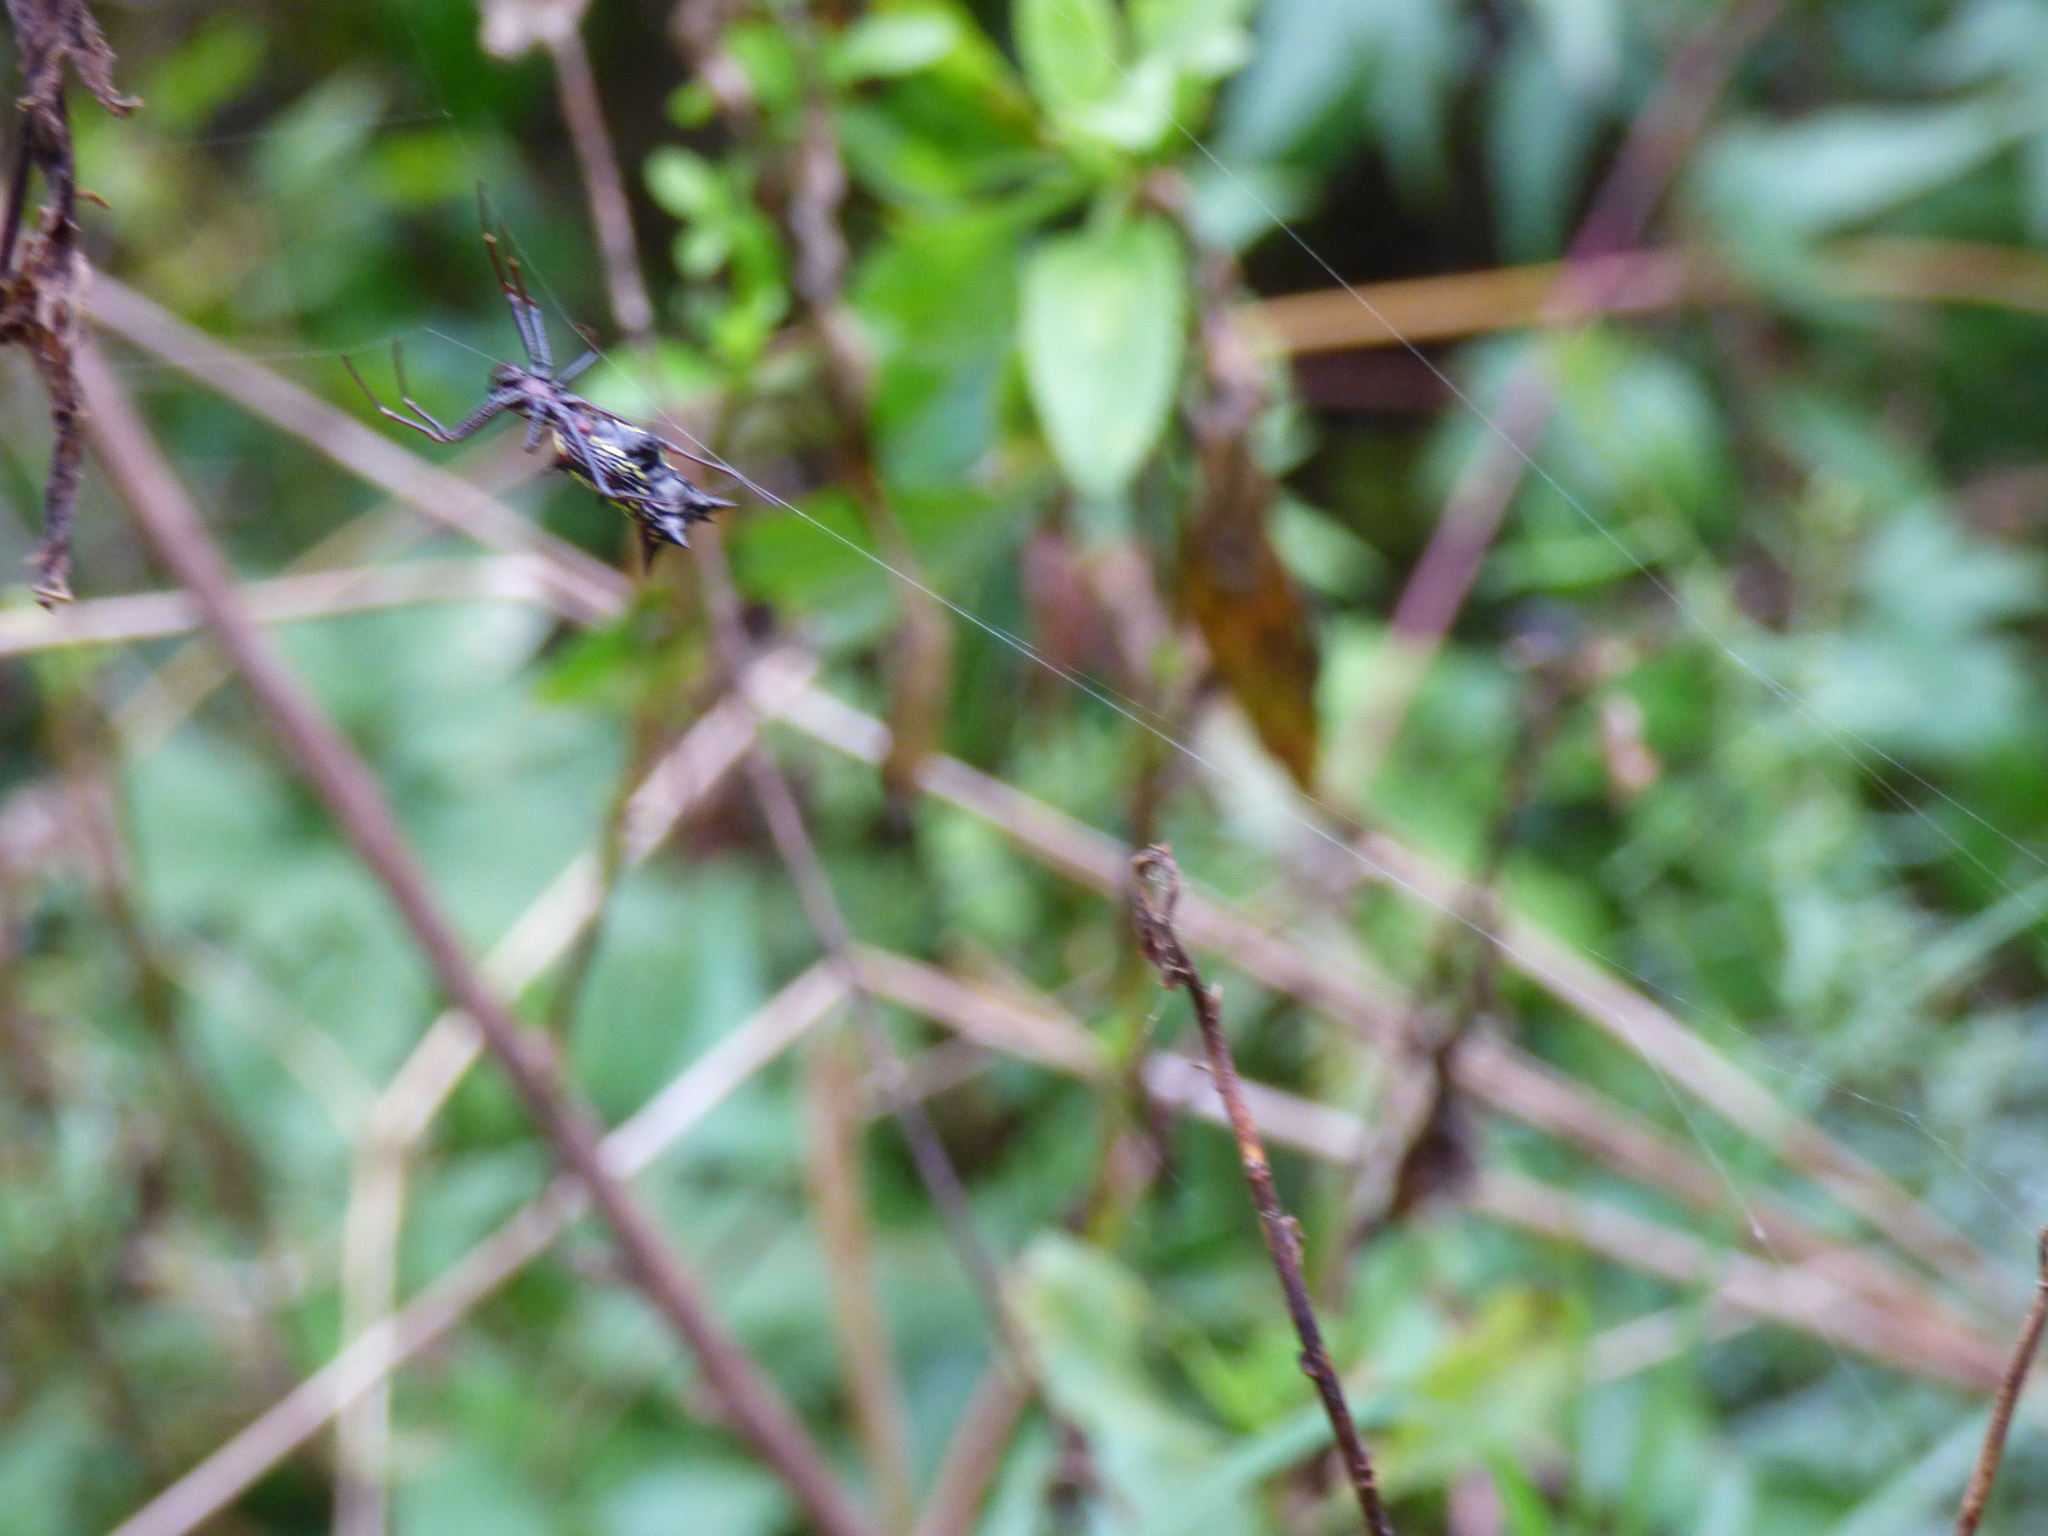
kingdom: Animalia
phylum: Arthropoda
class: Arachnida
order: Araneae
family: Araneidae
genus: Micrathena
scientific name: Micrathena swainsoni
